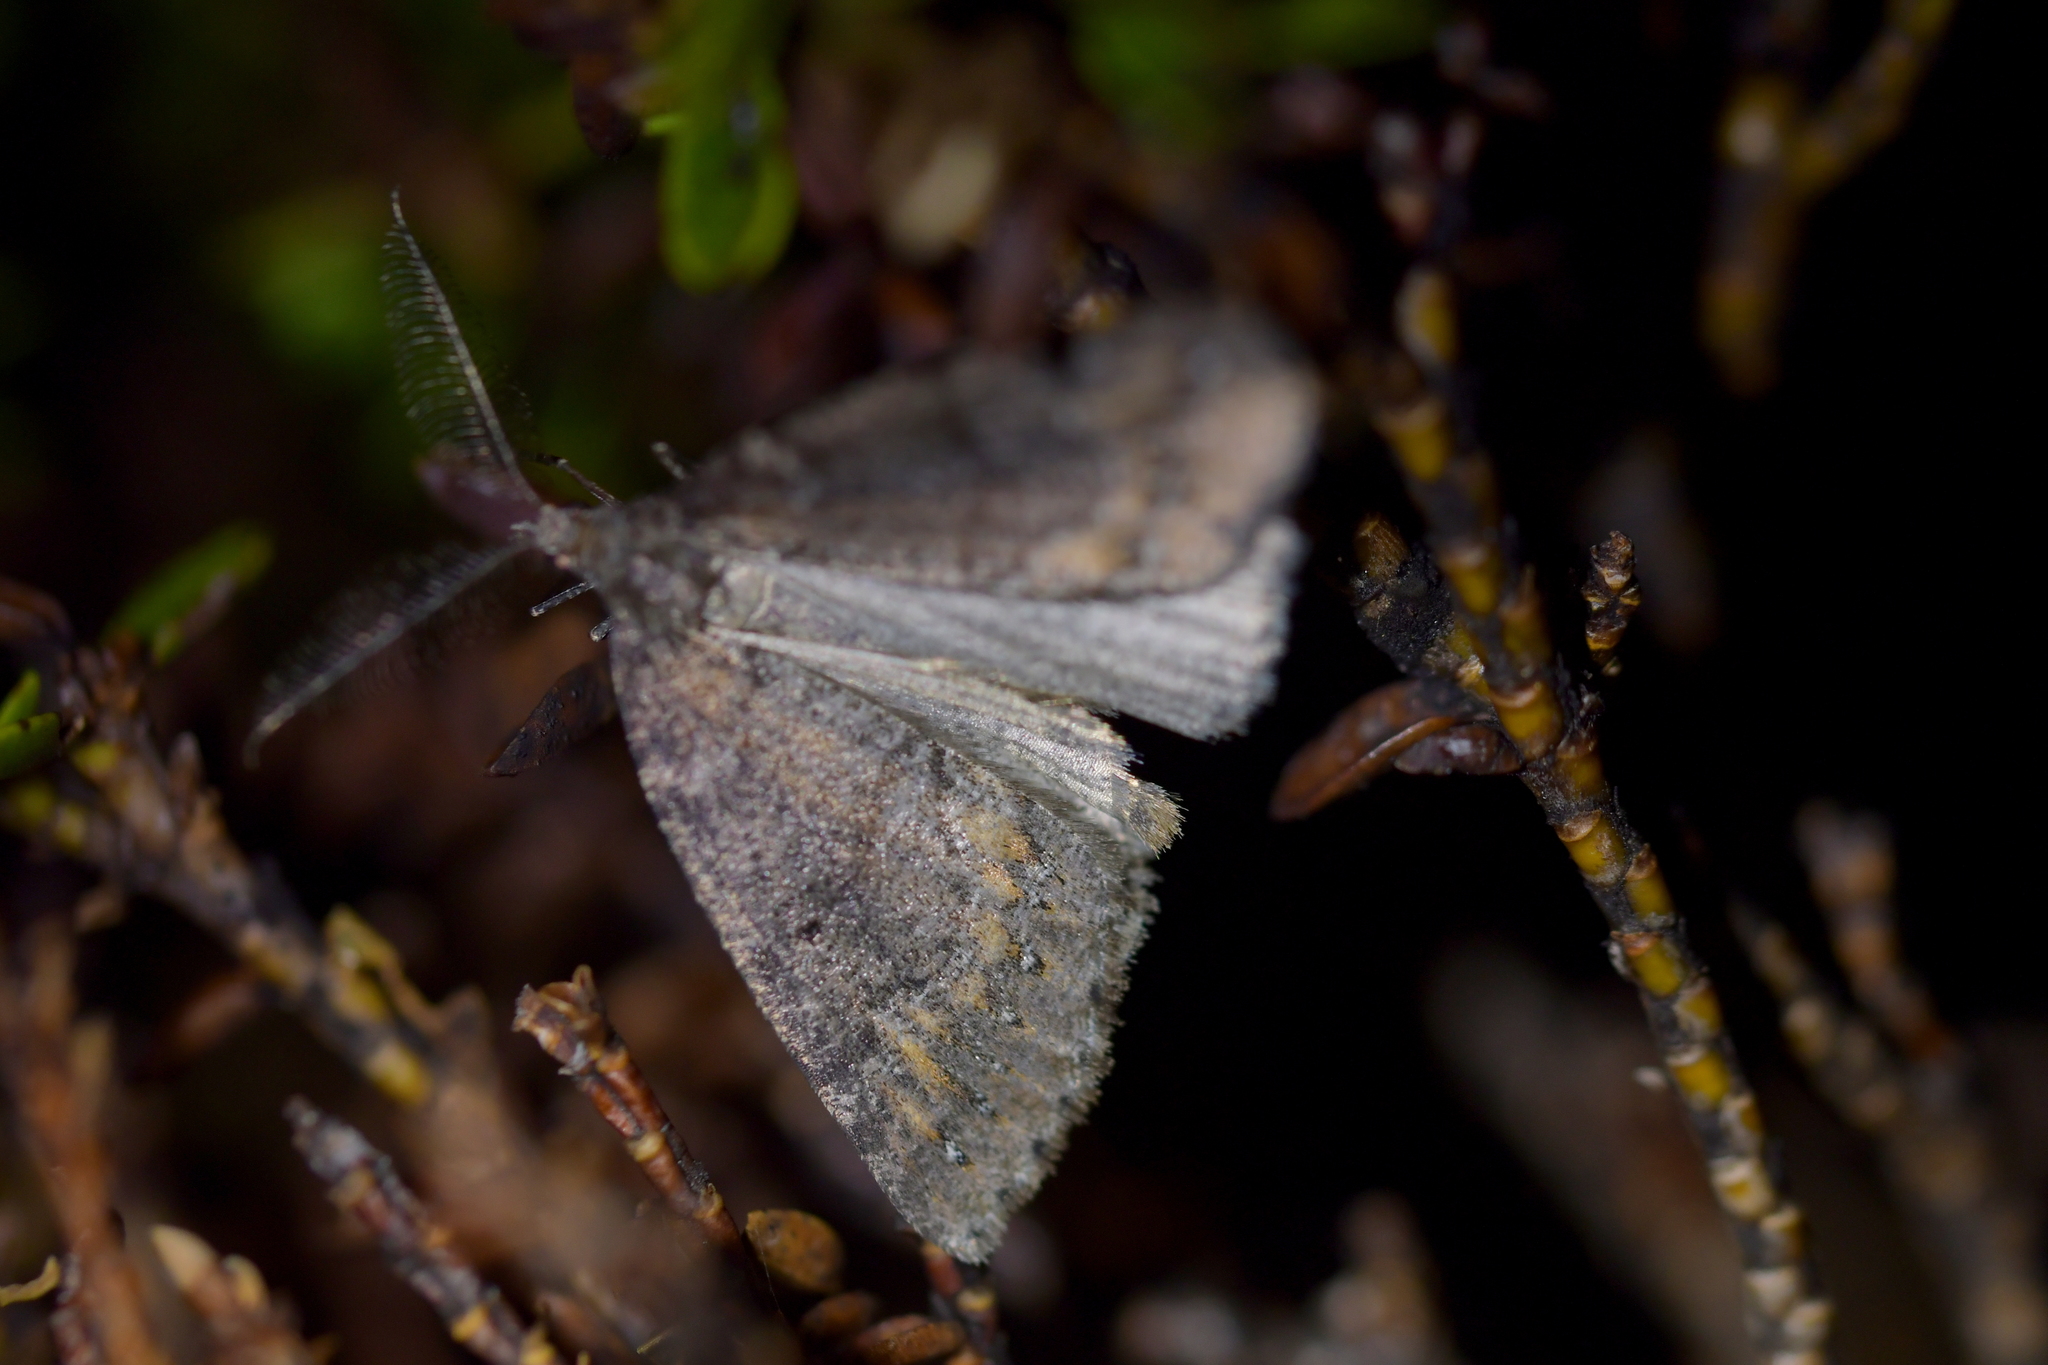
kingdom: Animalia
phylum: Arthropoda
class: Insecta
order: Lepidoptera
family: Geometridae
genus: Pseudocoremia
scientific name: Pseudocoremia
